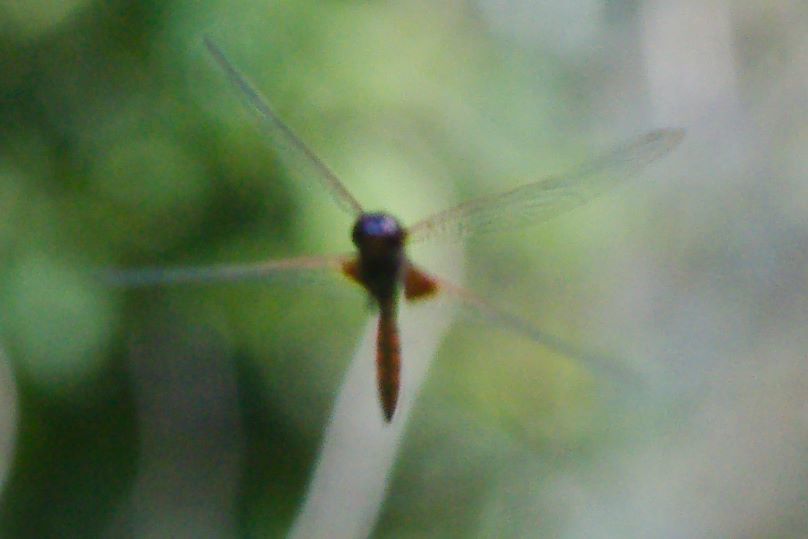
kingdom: Animalia
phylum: Arthropoda
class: Insecta
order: Odonata
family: Libellulidae
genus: Tauriphila
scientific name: Tauriphila australis
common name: Garnet glider
